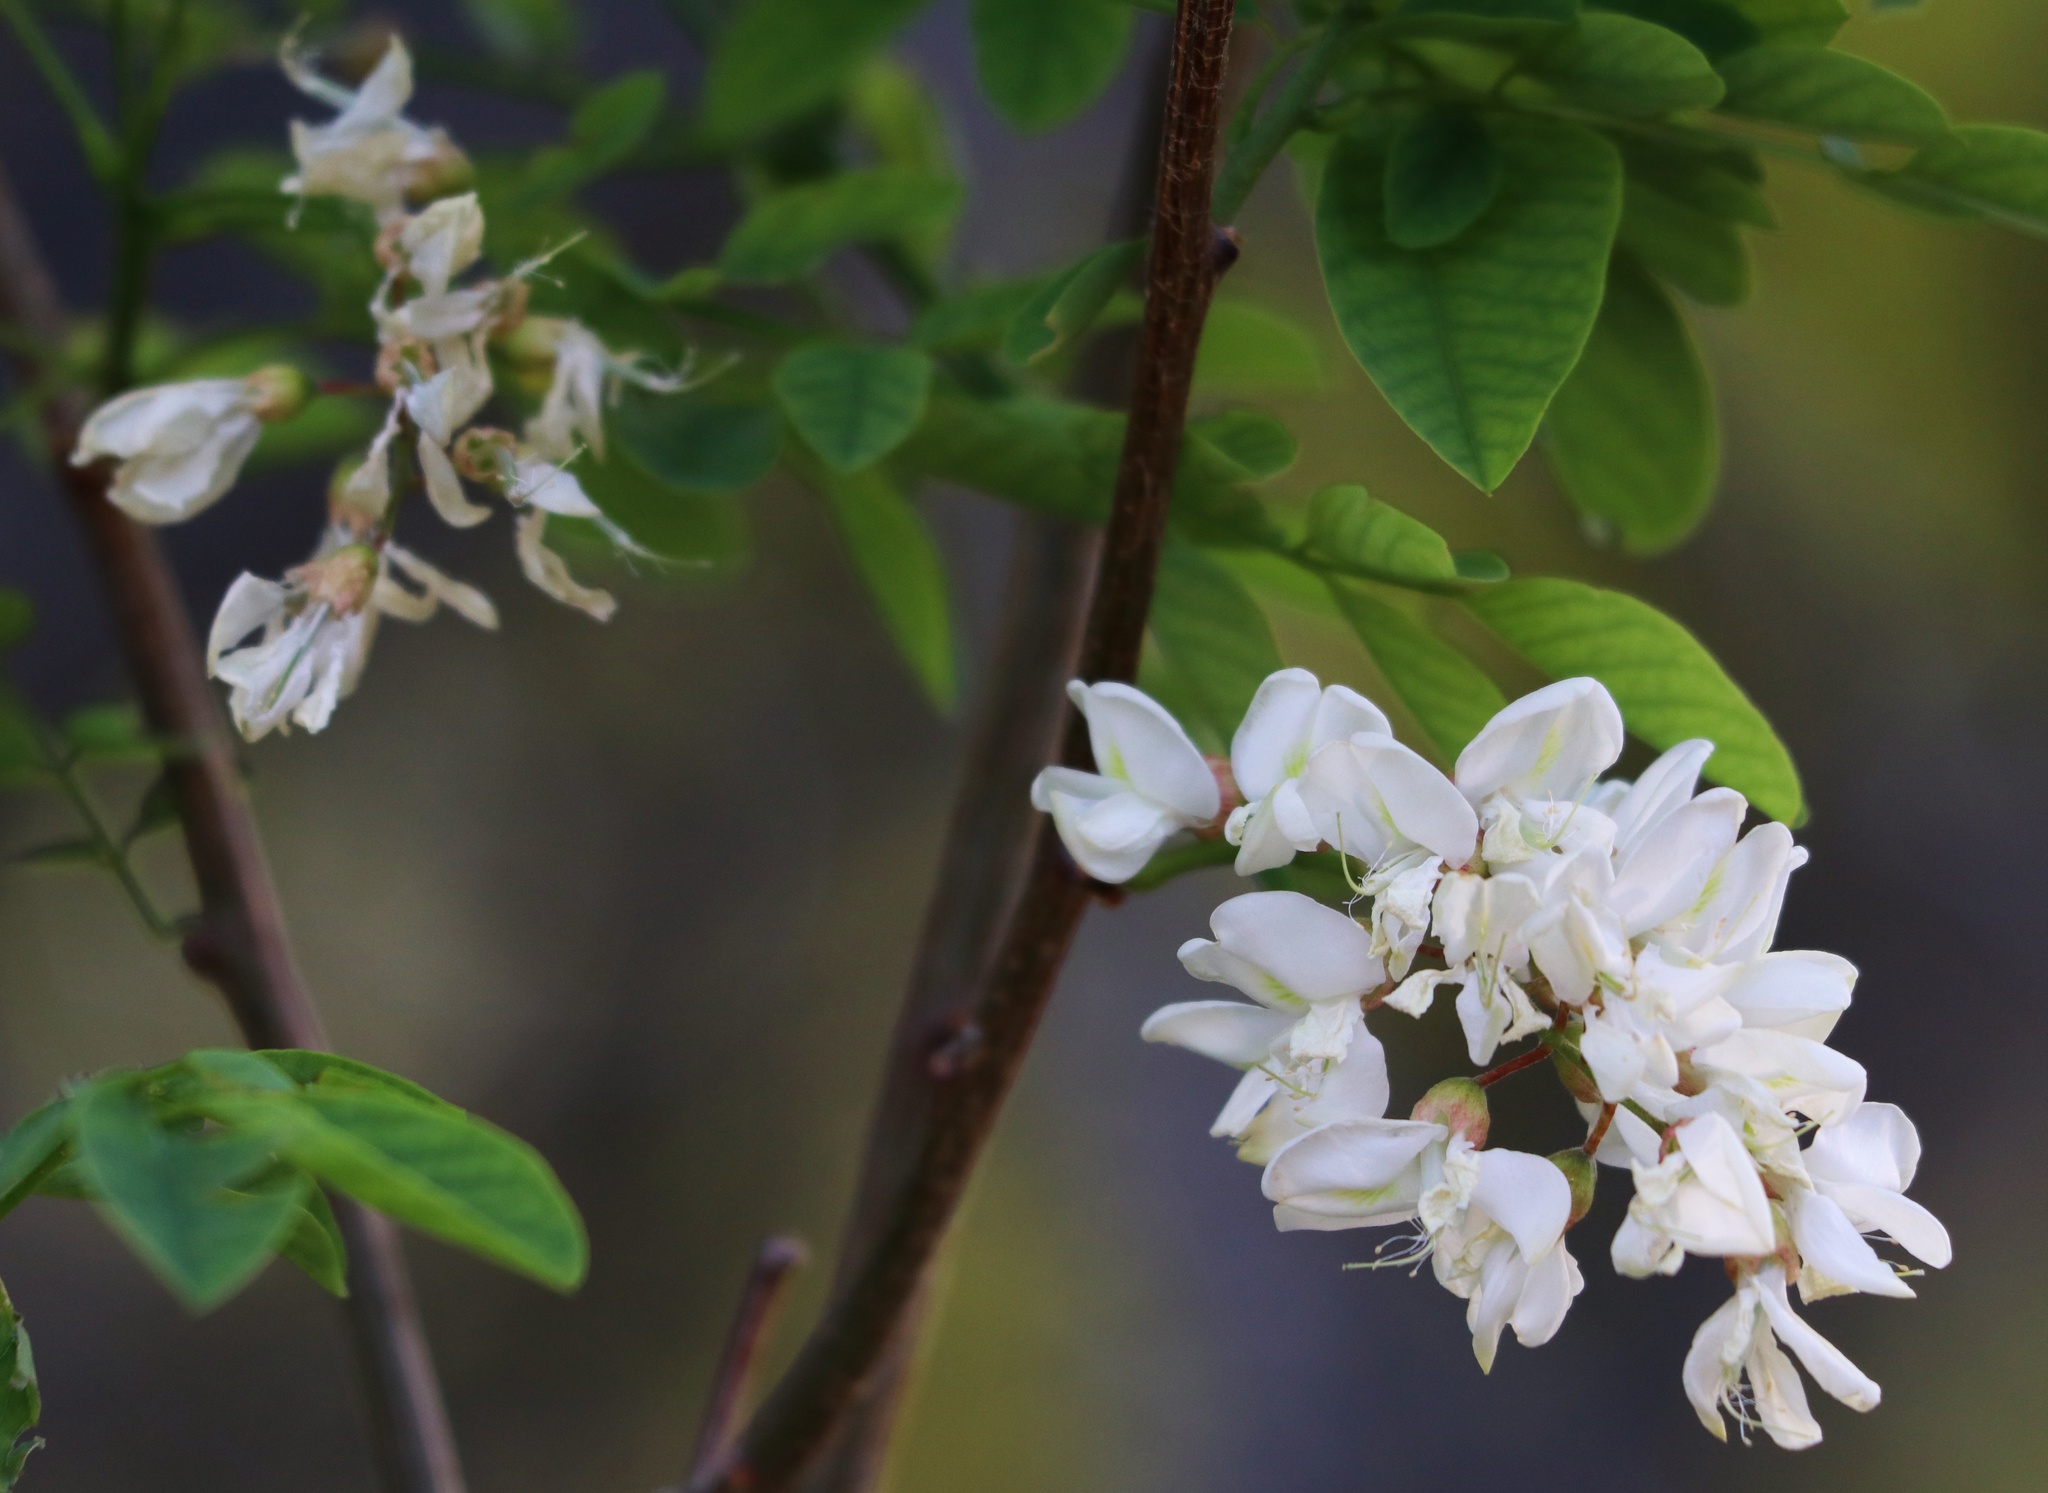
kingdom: Plantae
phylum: Tracheophyta
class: Magnoliopsida
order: Fabales
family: Fabaceae
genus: Robinia
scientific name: Robinia pseudoacacia
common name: Black locust
